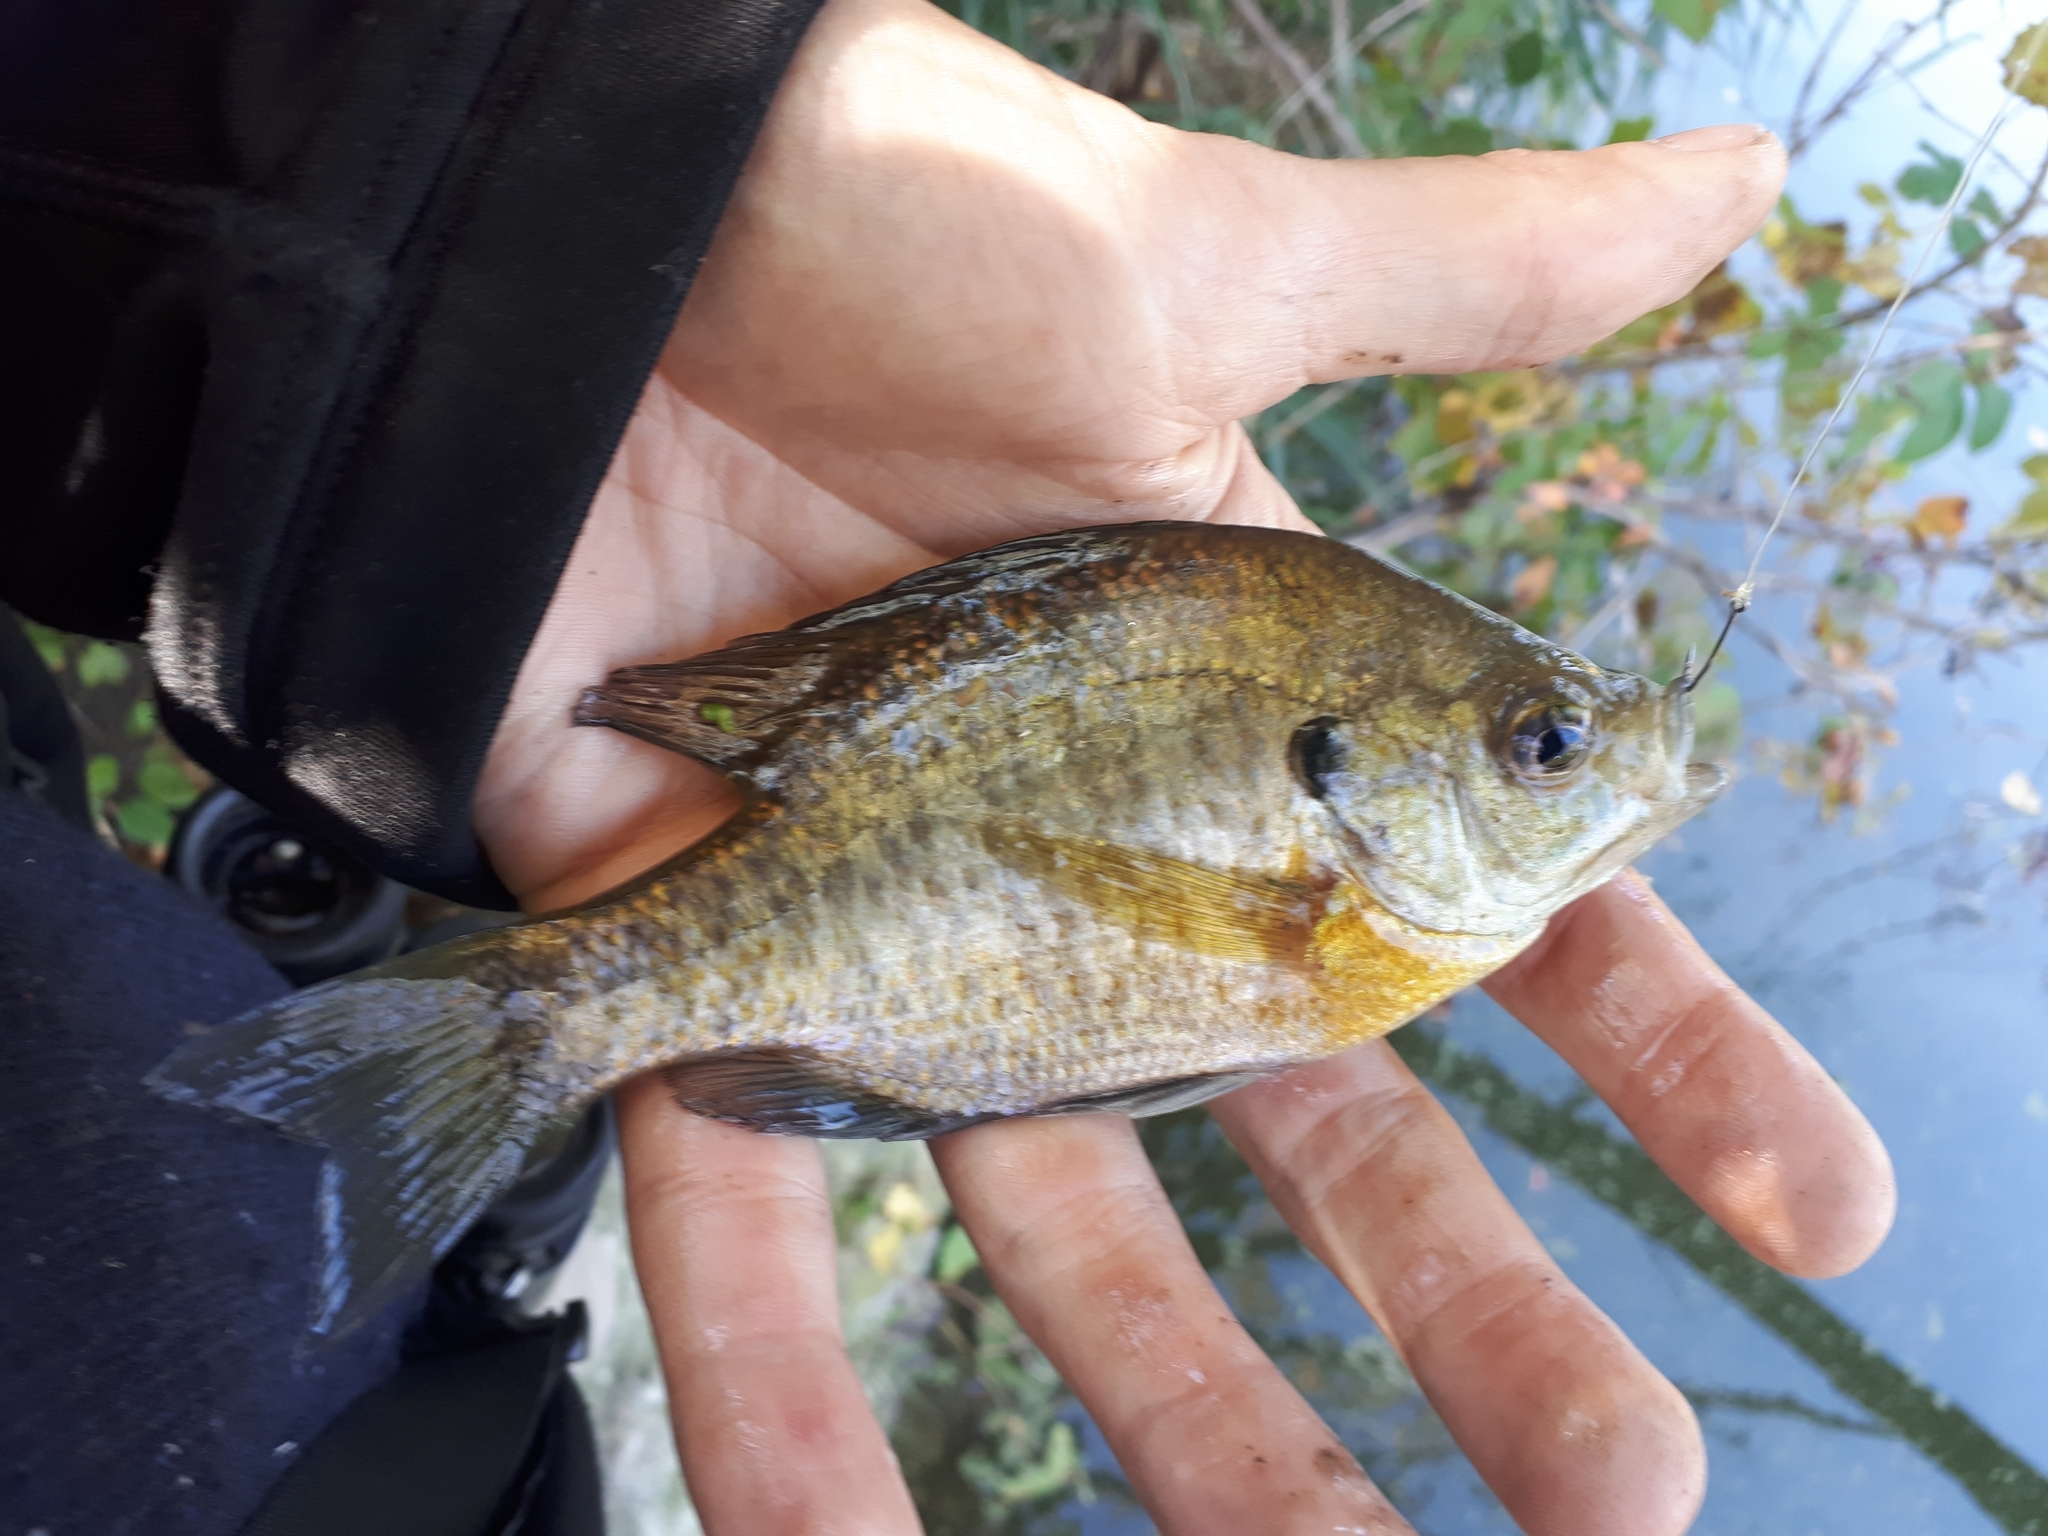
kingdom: Animalia
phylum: Chordata
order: Perciformes
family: Centrarchidae
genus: Lepomis
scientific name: Lepomis macrochirus
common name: Bluegill
